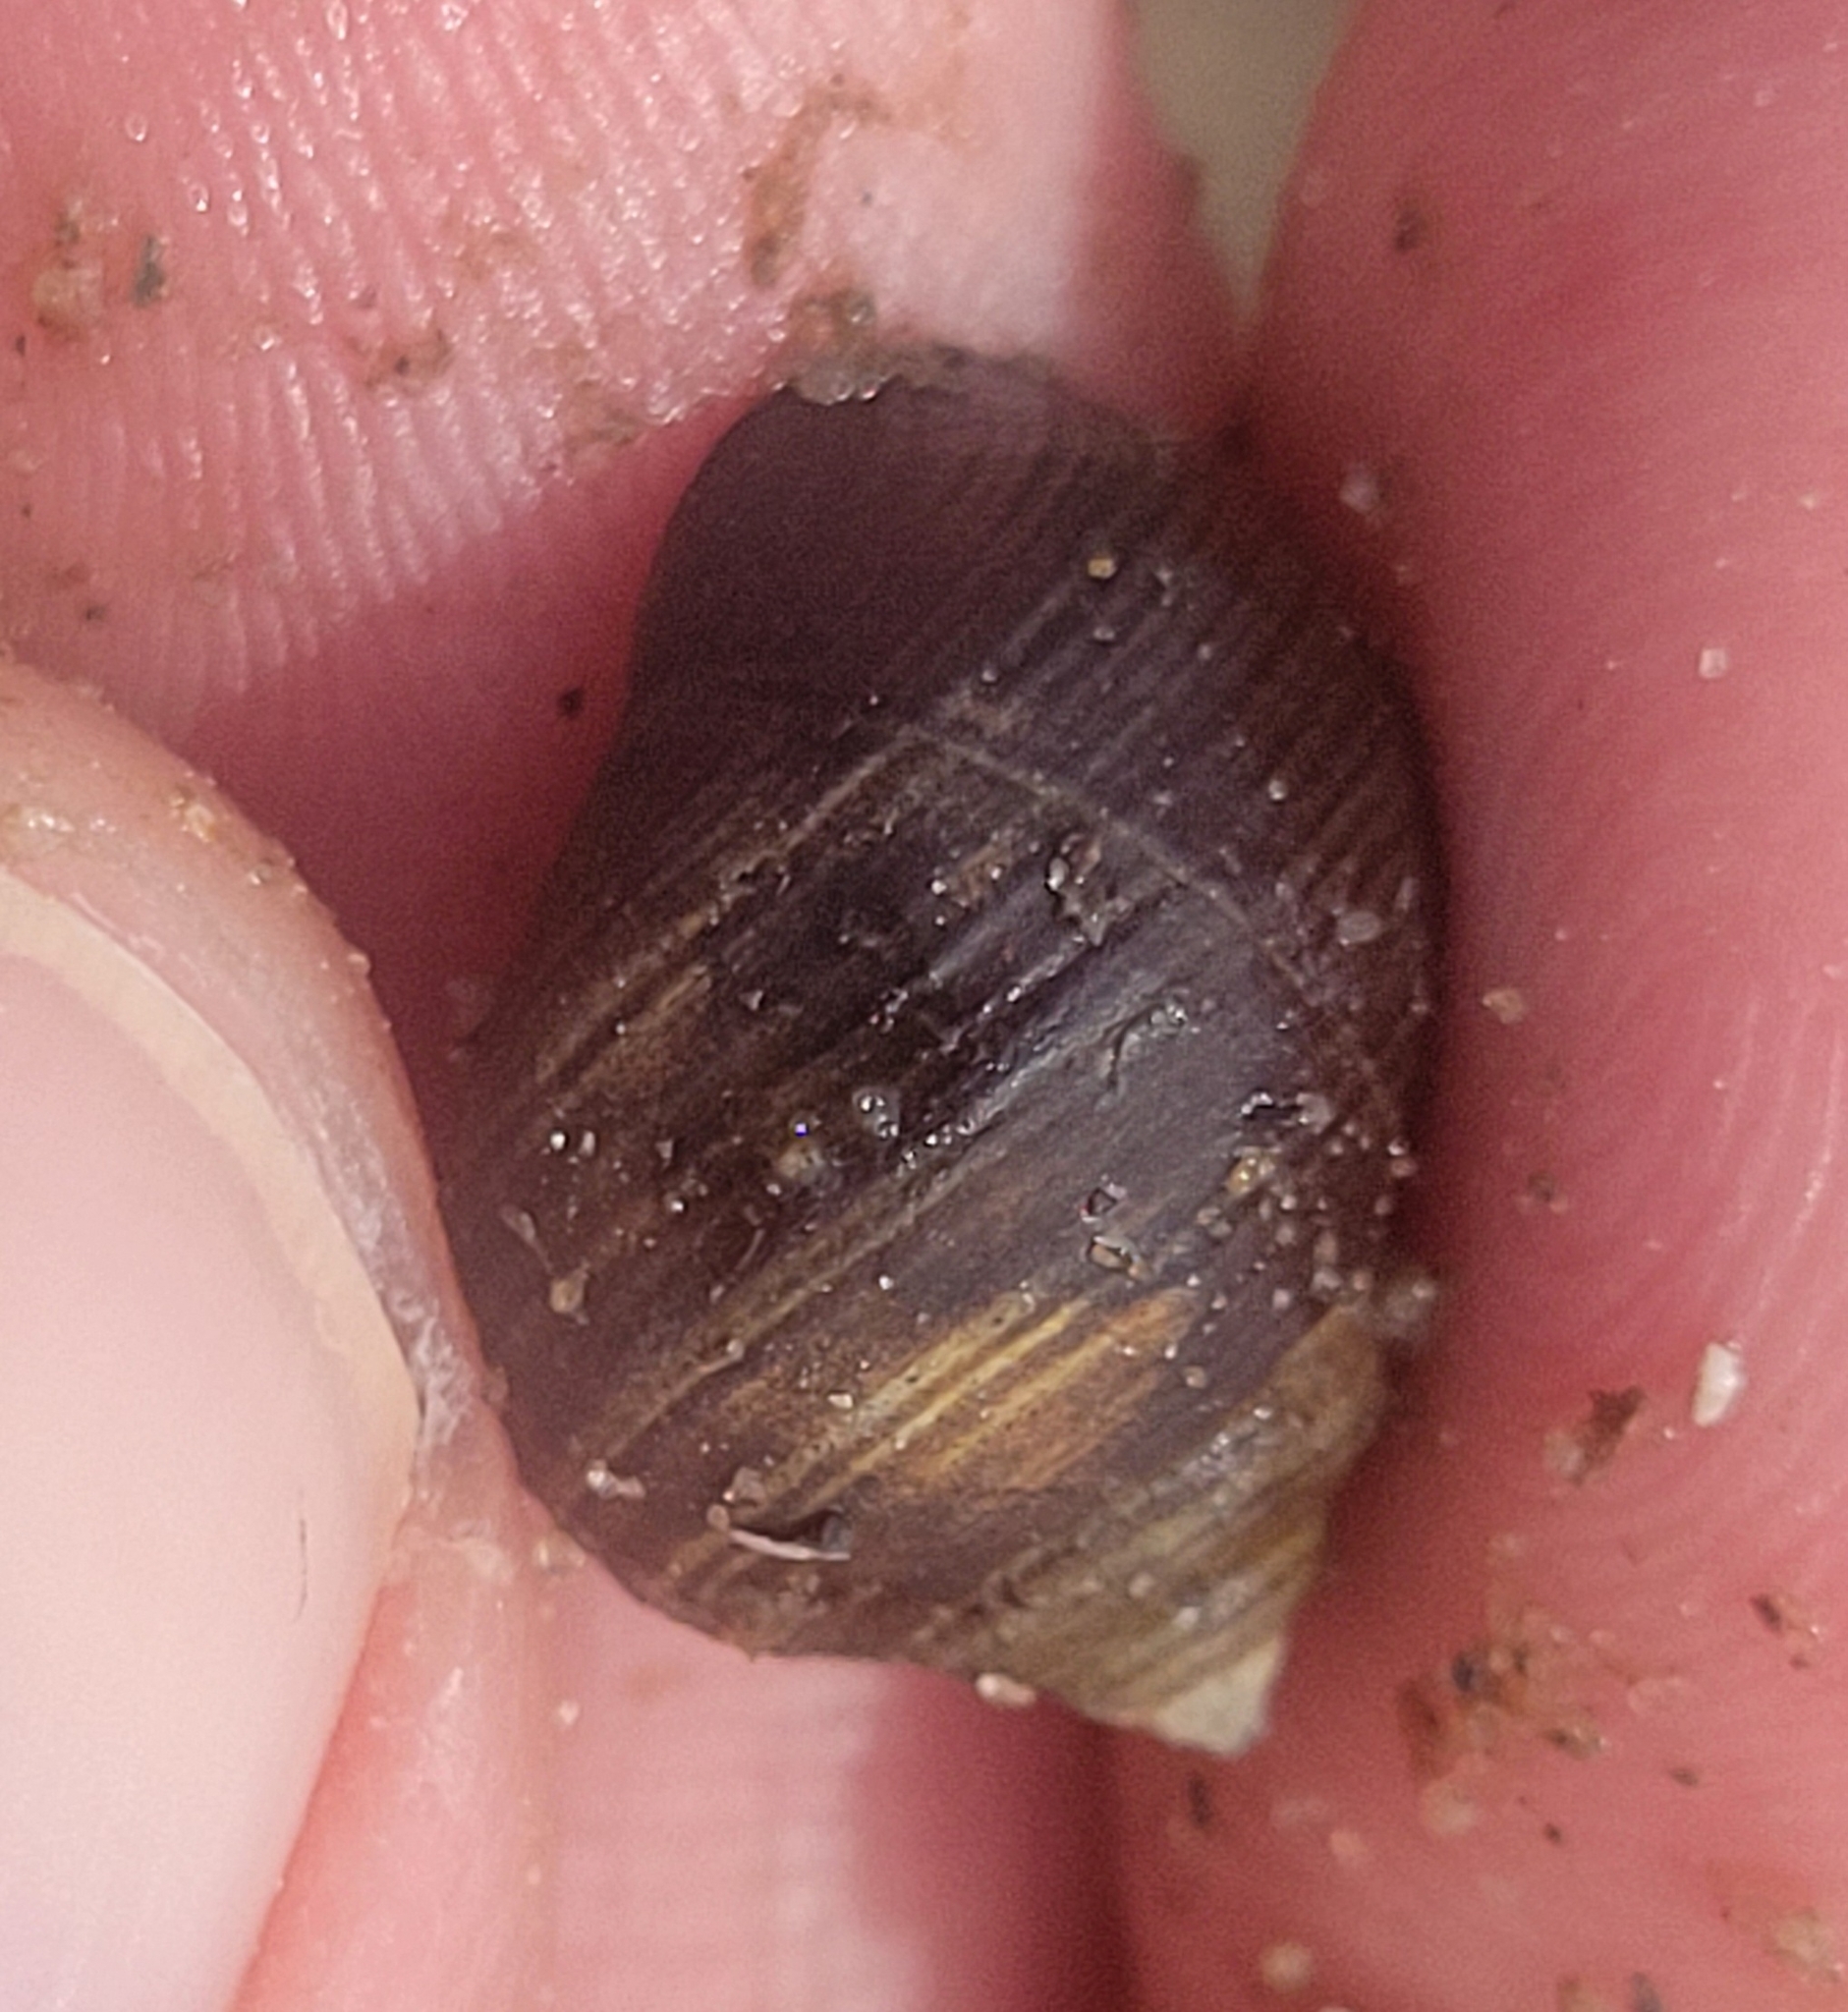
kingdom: Animalia
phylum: Mollusca
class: Gastropoda
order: Littorinimorpha
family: Littorinidae
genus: Littorina
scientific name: Littorina littorea
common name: Common periwinkle
